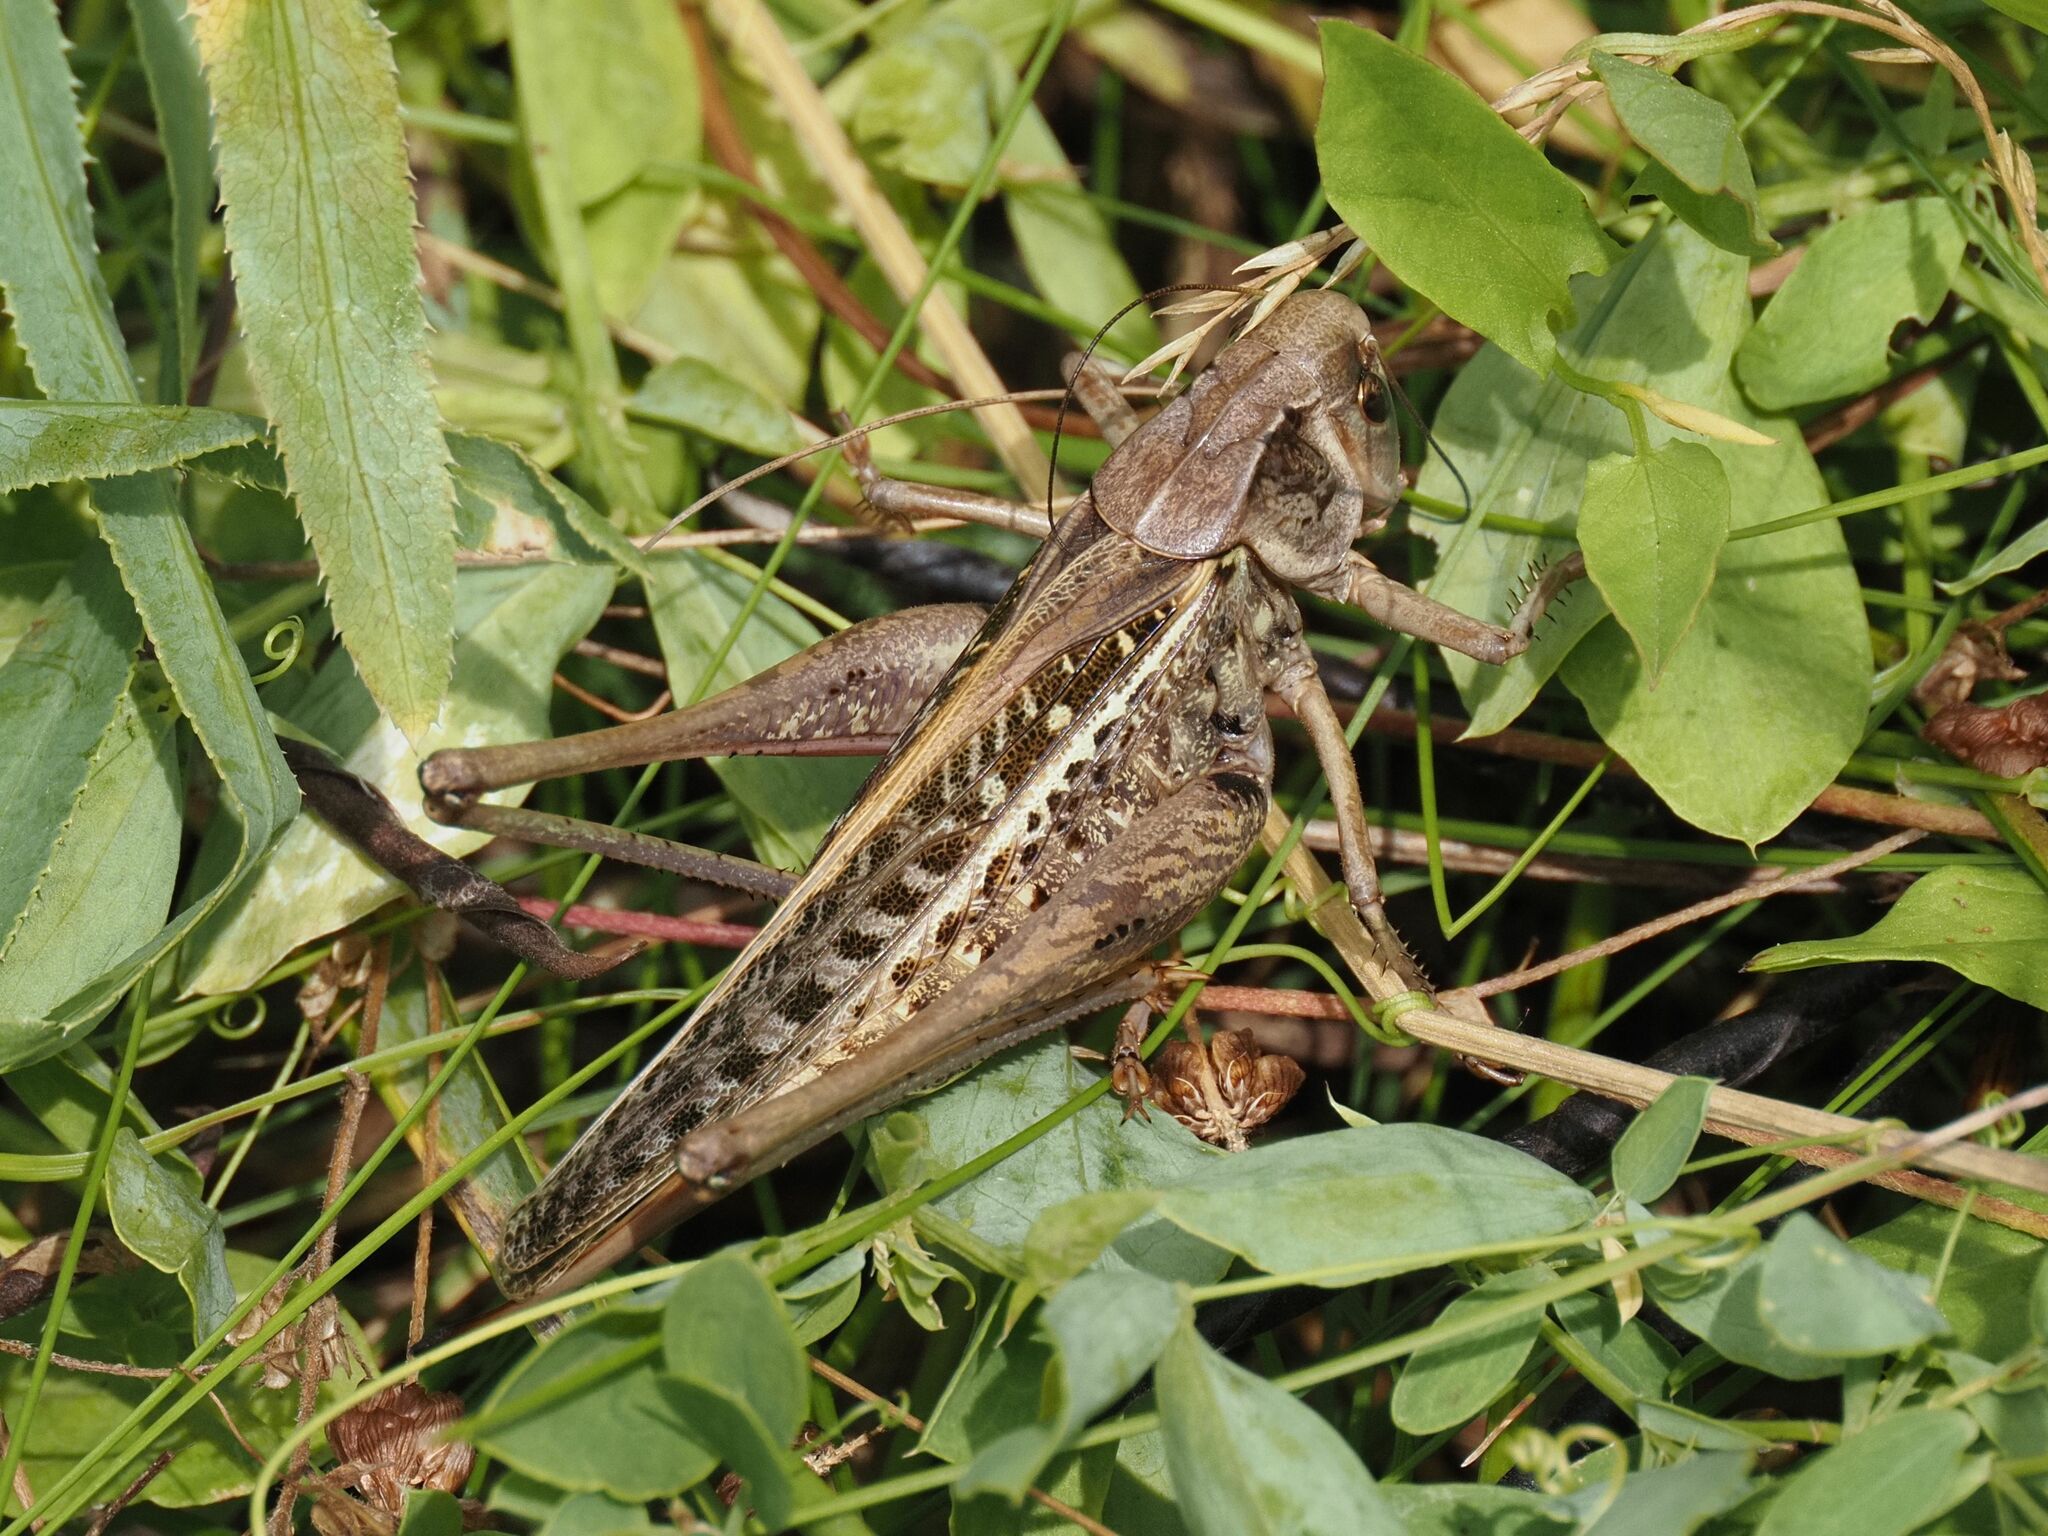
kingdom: Animalia
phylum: Arthropoda
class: Insecta
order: Orthoptera
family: Tettigoniidae
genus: Decticus
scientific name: Decticus verrucivorus
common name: Wart-biter
